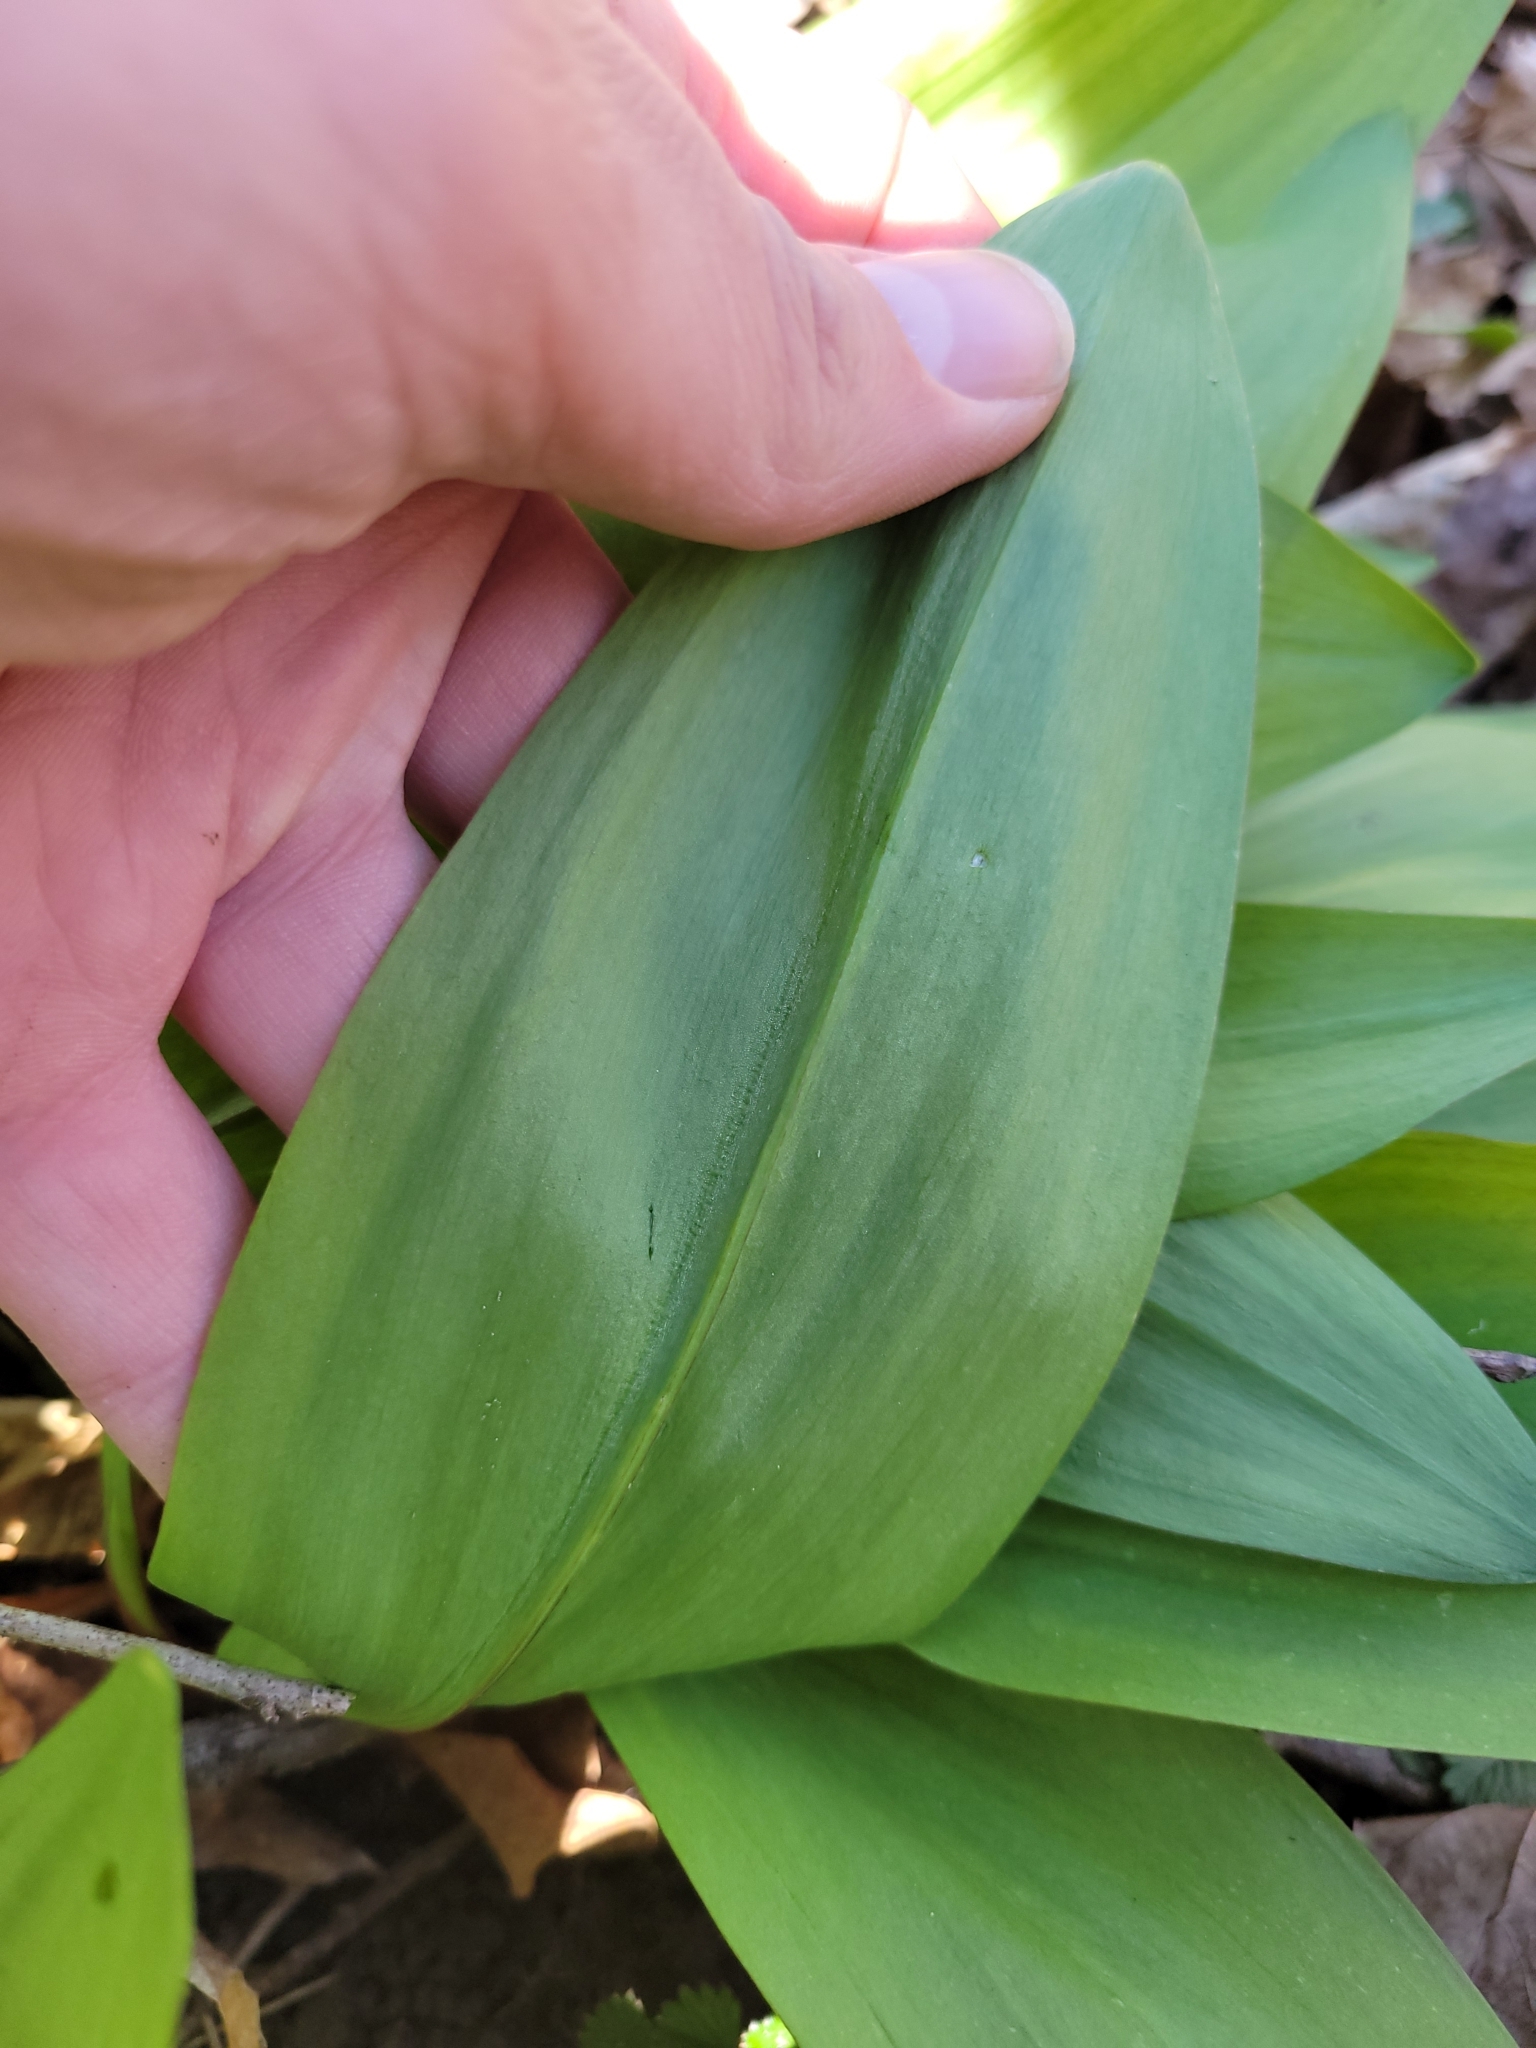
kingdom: Plantae
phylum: Tracheophyta
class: Liliopsida
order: Asparagales
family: Amaryllidaceae
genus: Allium
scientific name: Allium tricoccum
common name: Ramp
